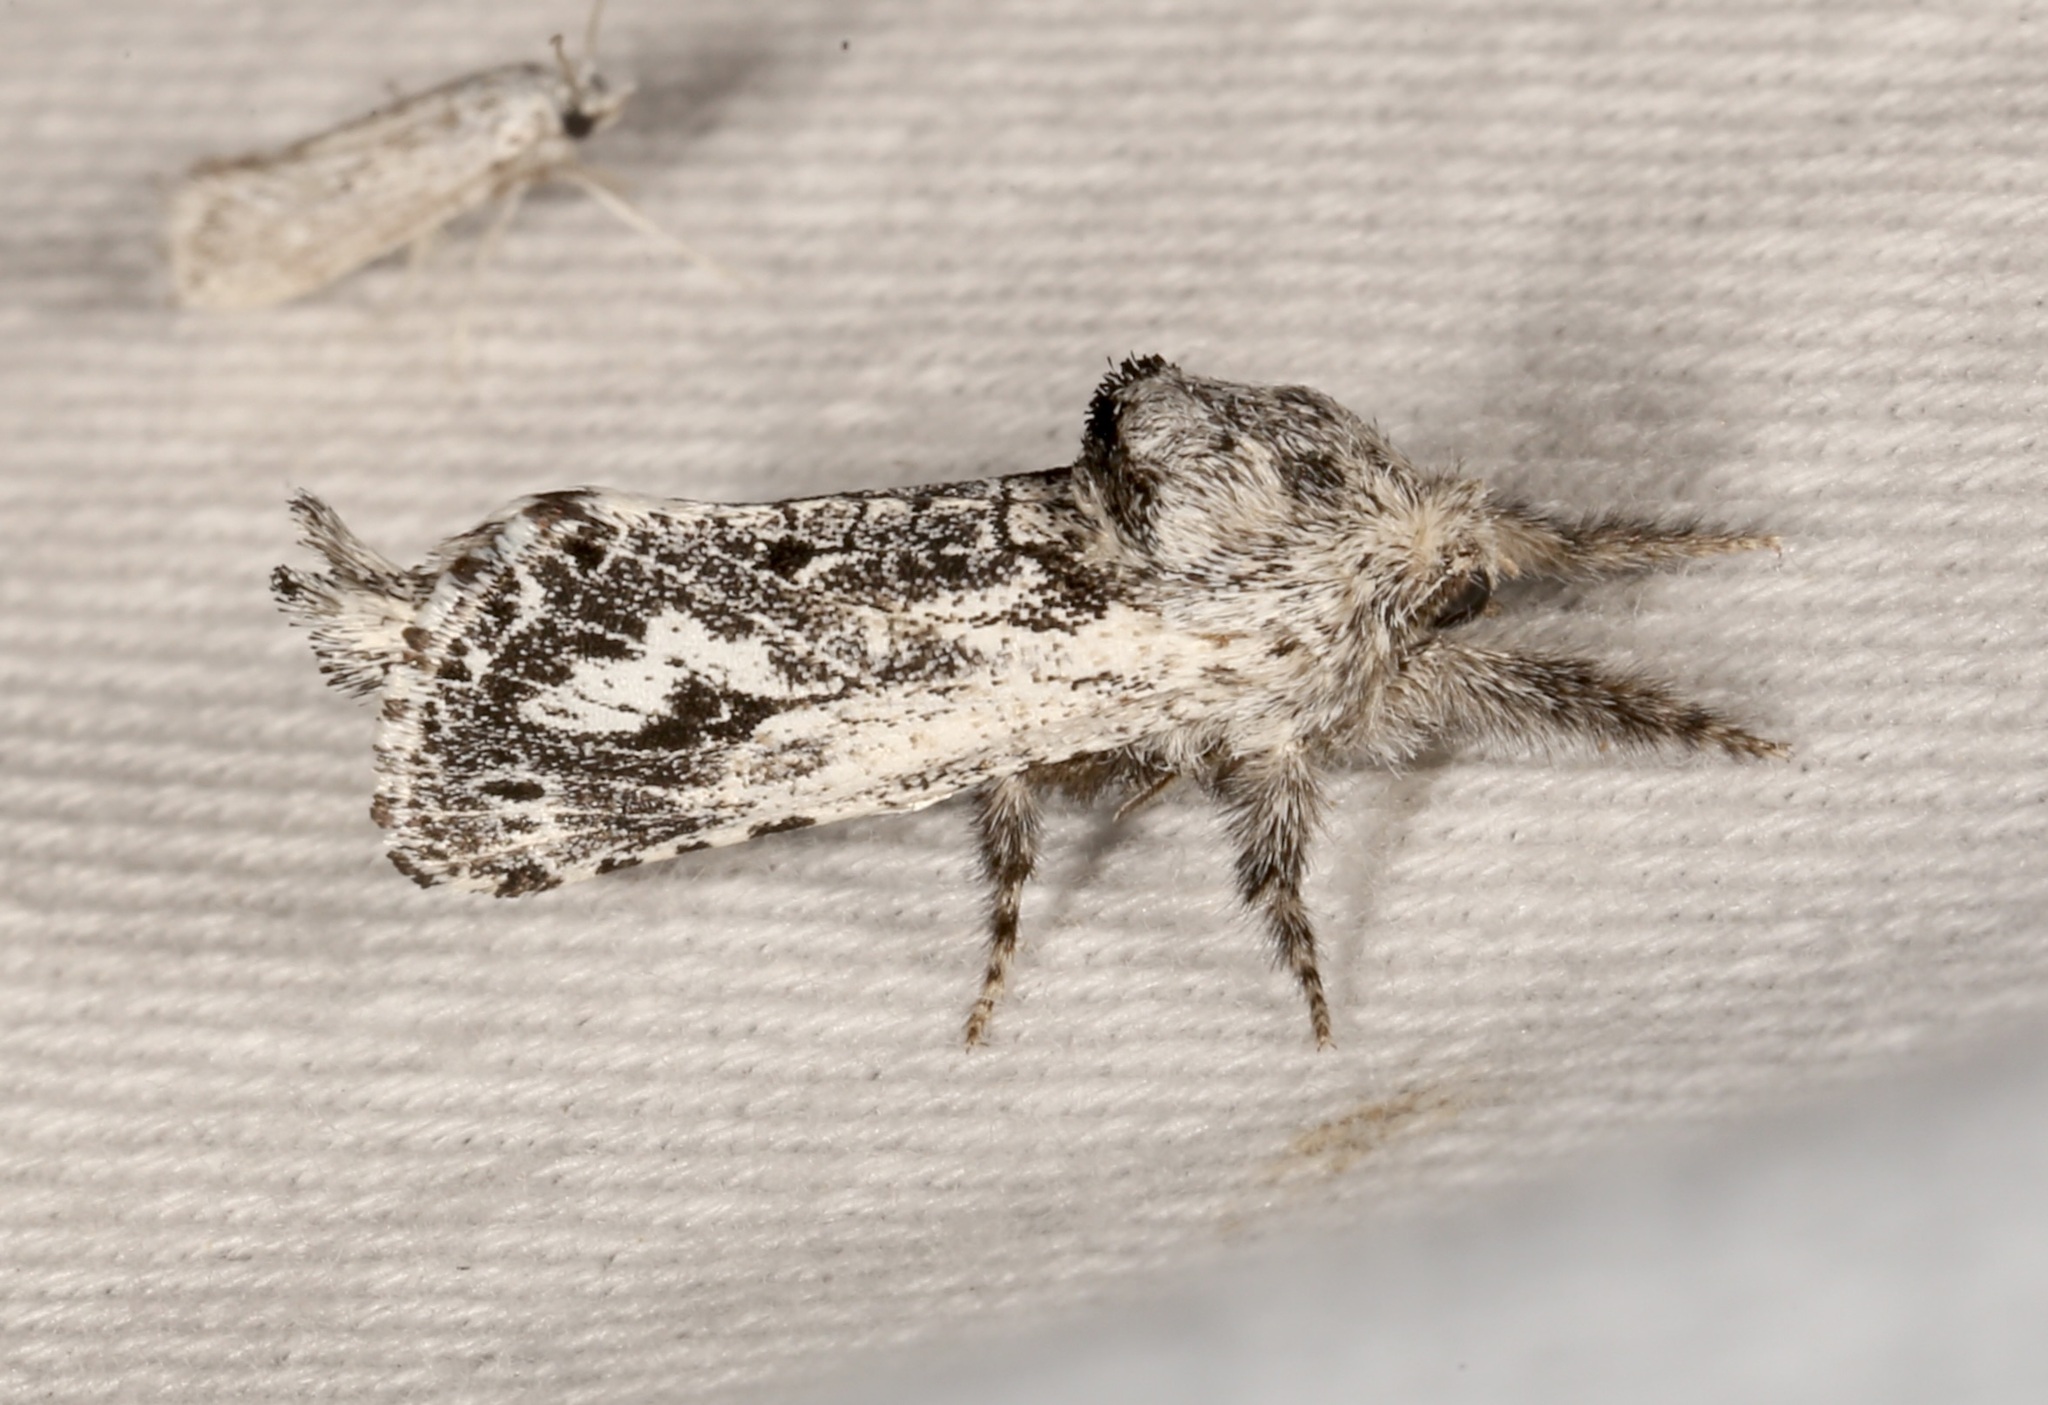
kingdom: Animalia
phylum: Arthropoda
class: Insecta
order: Lepidoptera
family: Cossidae
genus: Givira
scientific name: Givira cleopatra
